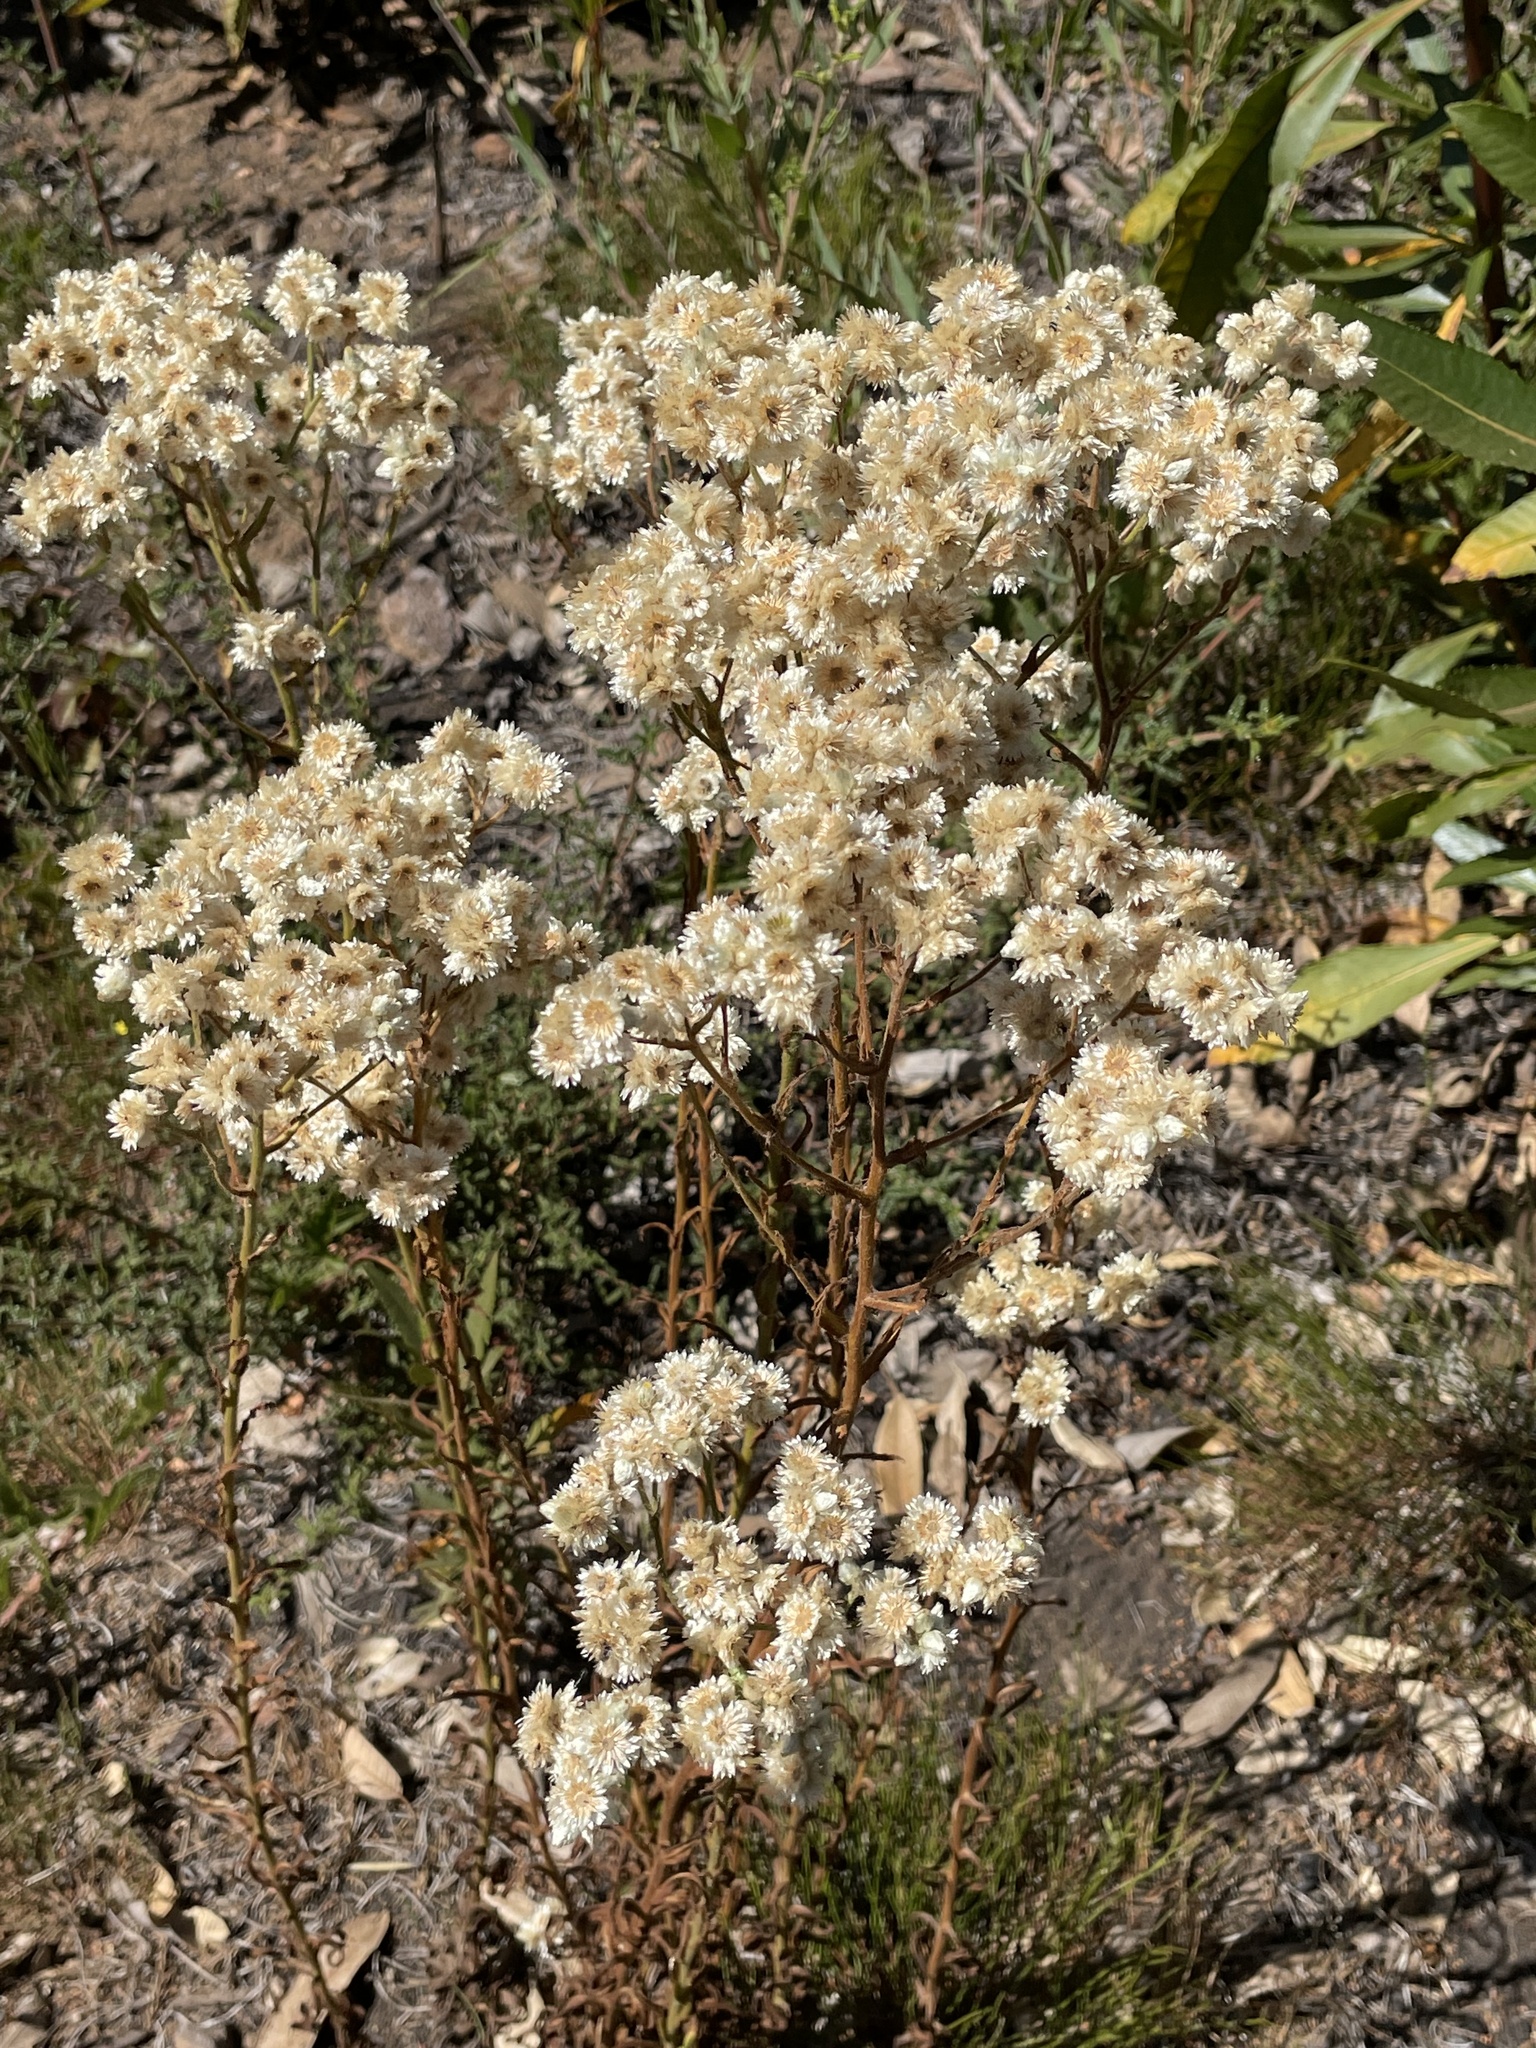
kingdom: Plantae
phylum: Tracheophyta
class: Magnoliopsida
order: Asterales
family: Asteraceae
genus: Pseudognaphalium
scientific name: Pseudognaphalium californicum
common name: California rabbit-tobacco
